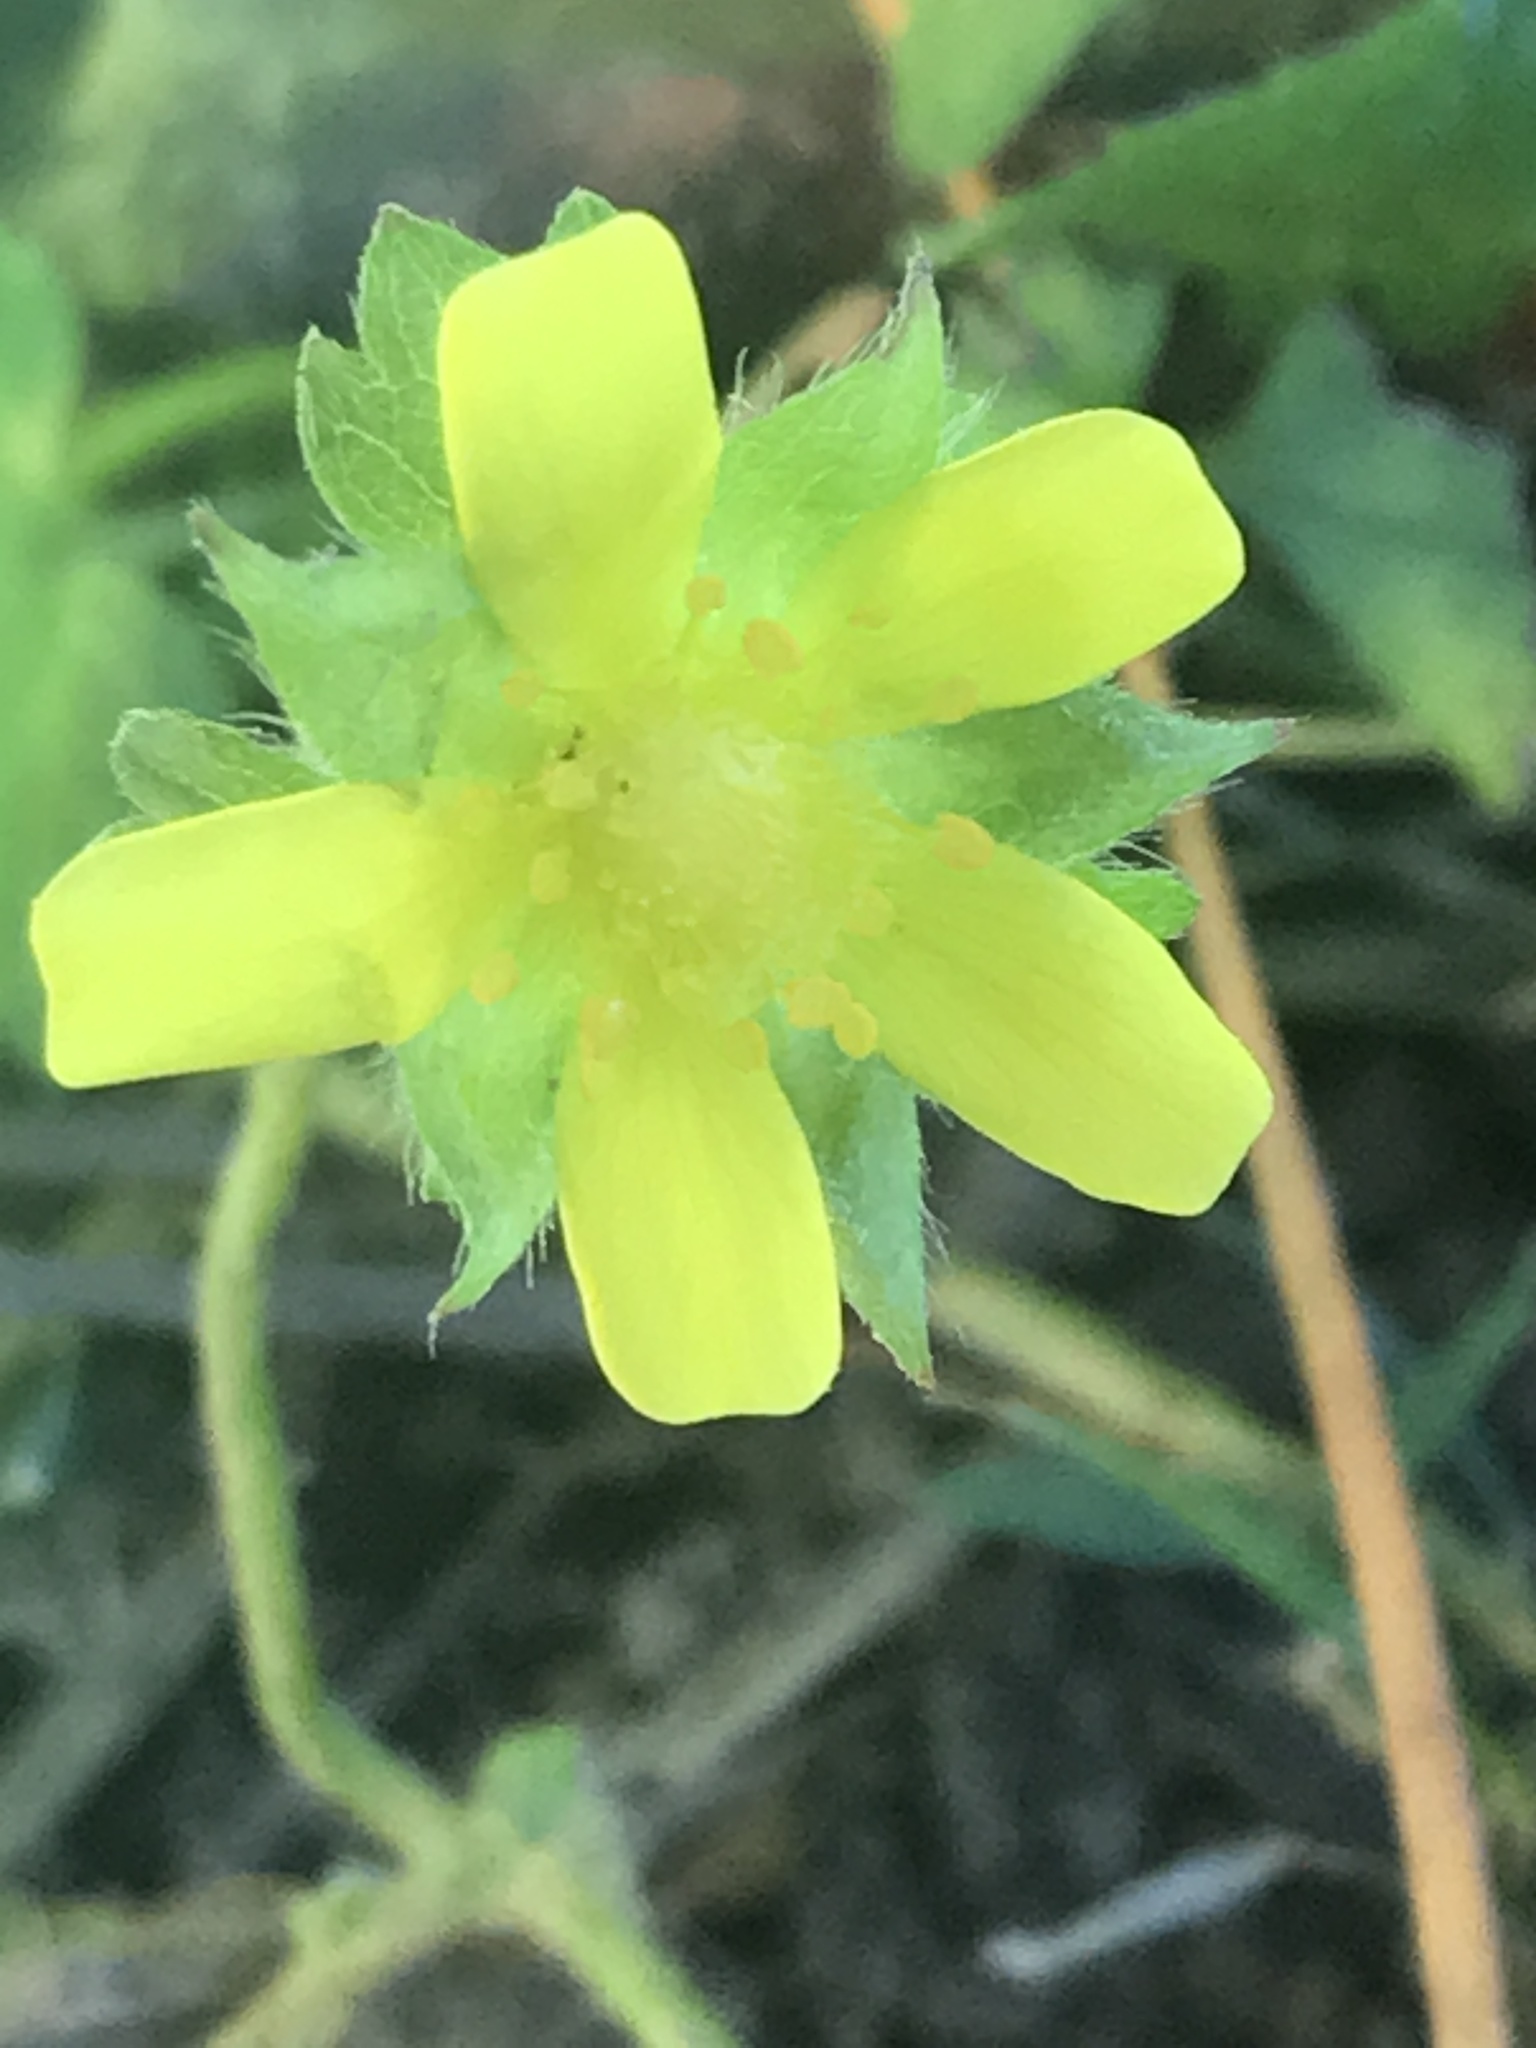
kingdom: Plantae
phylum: Tracheophyta
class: Magnoliopsida
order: Rosales
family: Rosaceae
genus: Potentilla
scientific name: Potentilla indica
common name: Yellow-flowered strawberry
